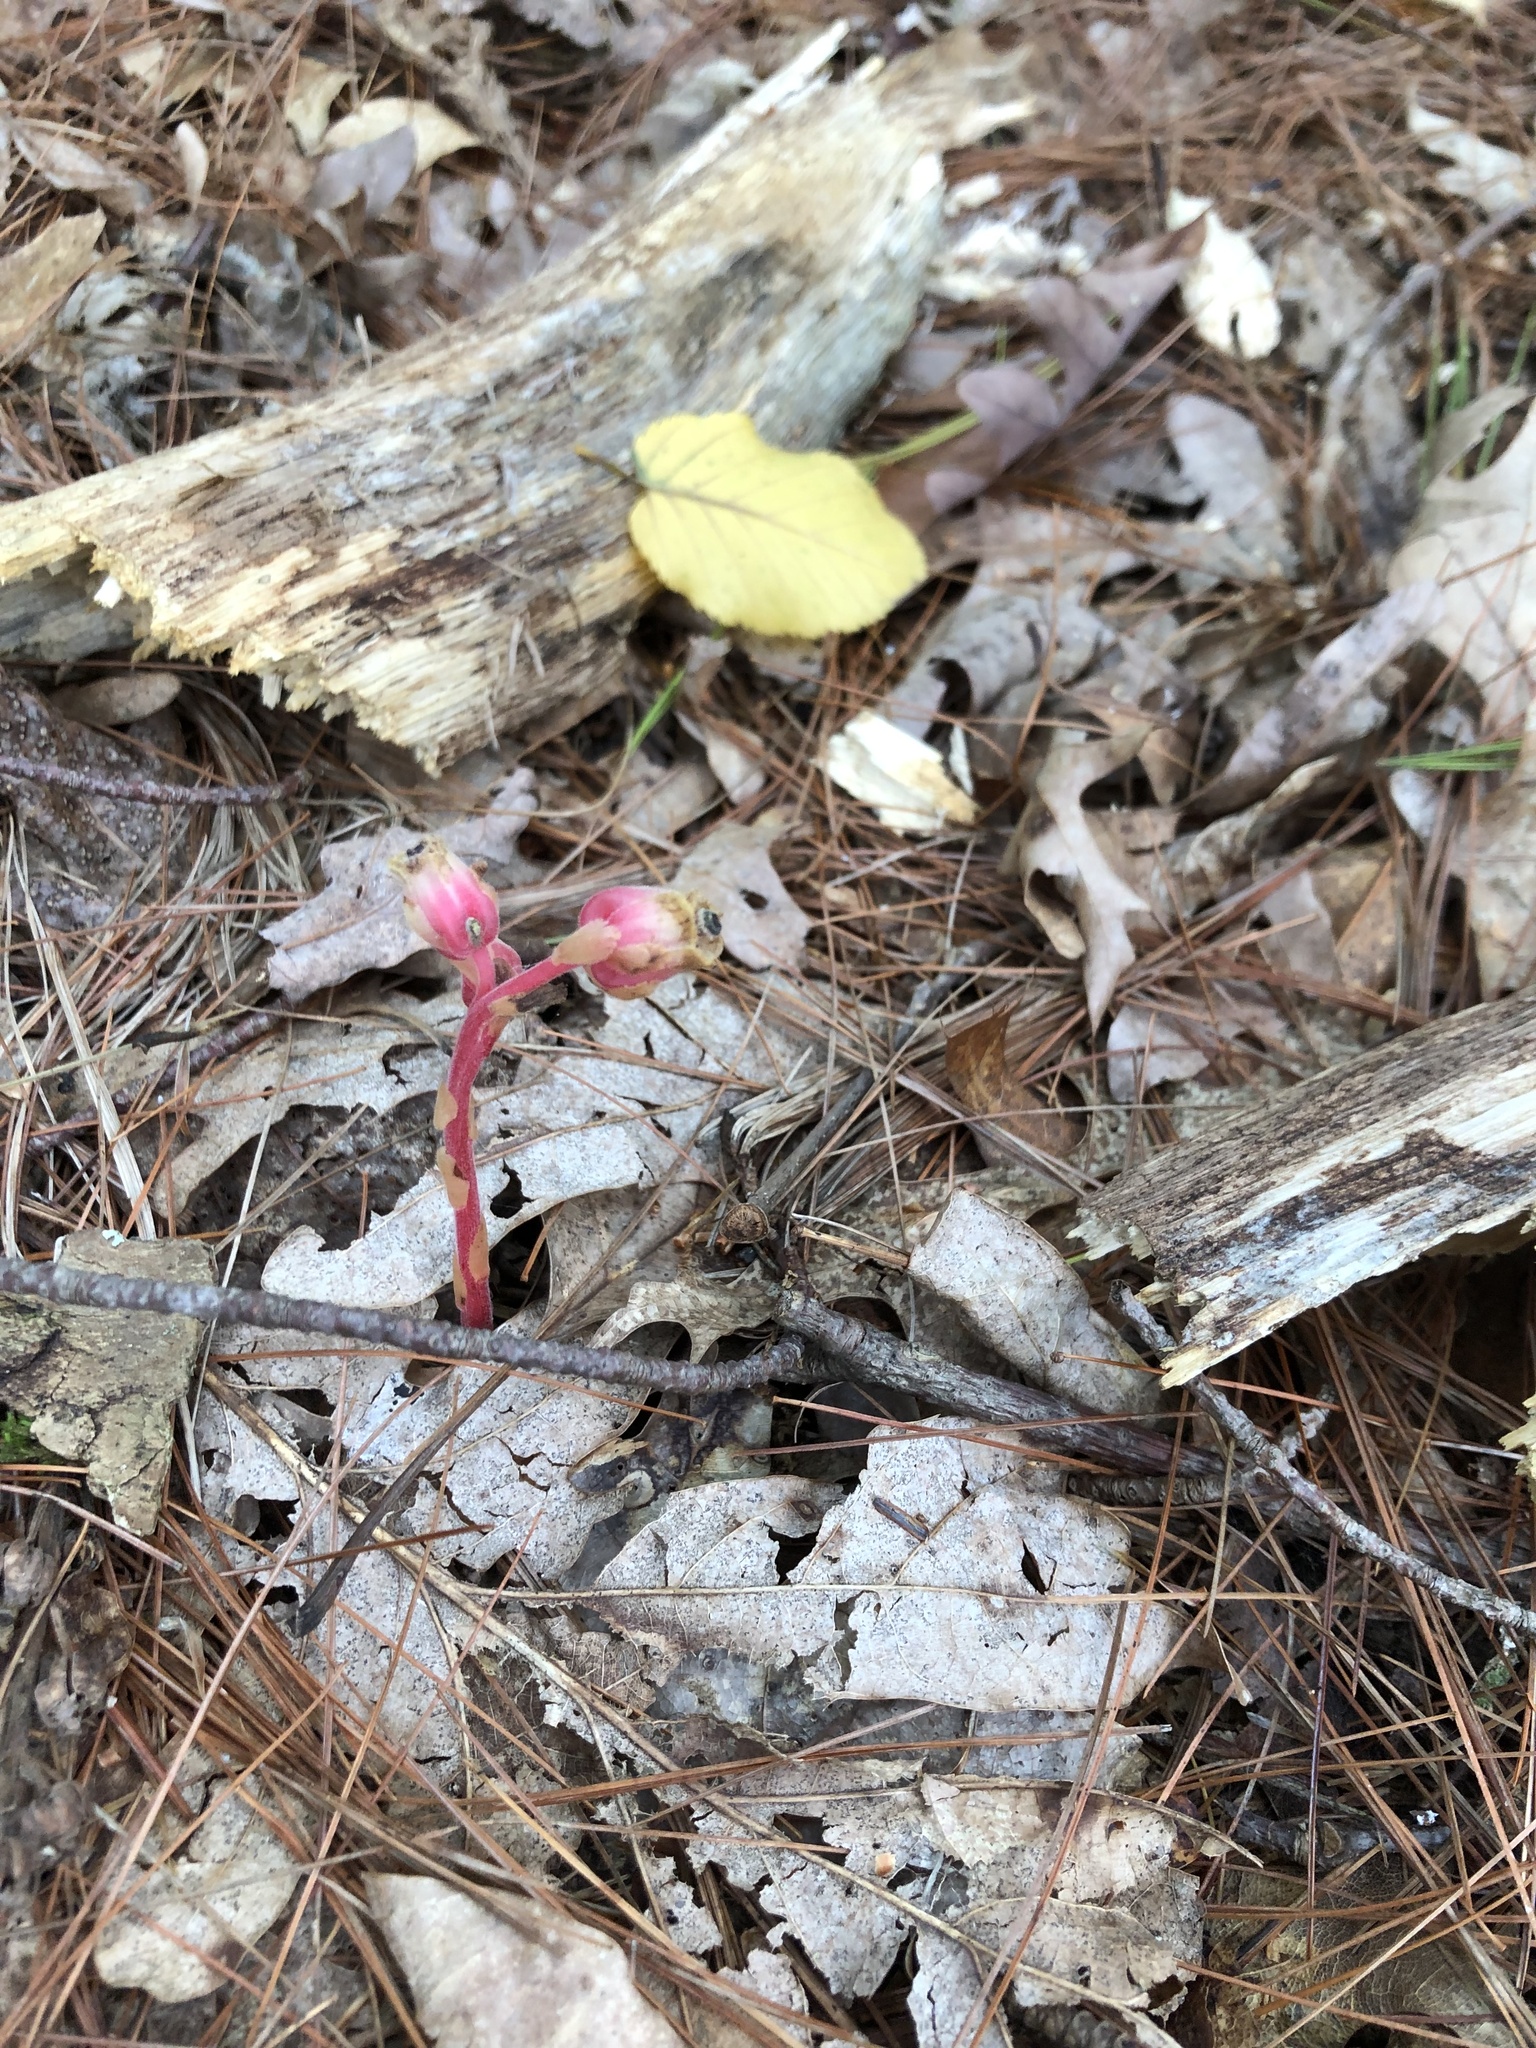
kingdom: Plantae
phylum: Tracheophyta
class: Magnoliopsida
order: Ericales
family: Ericaceae
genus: Hypopitys
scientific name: Hypopitys monotropa
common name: Yellow bird's-nest
